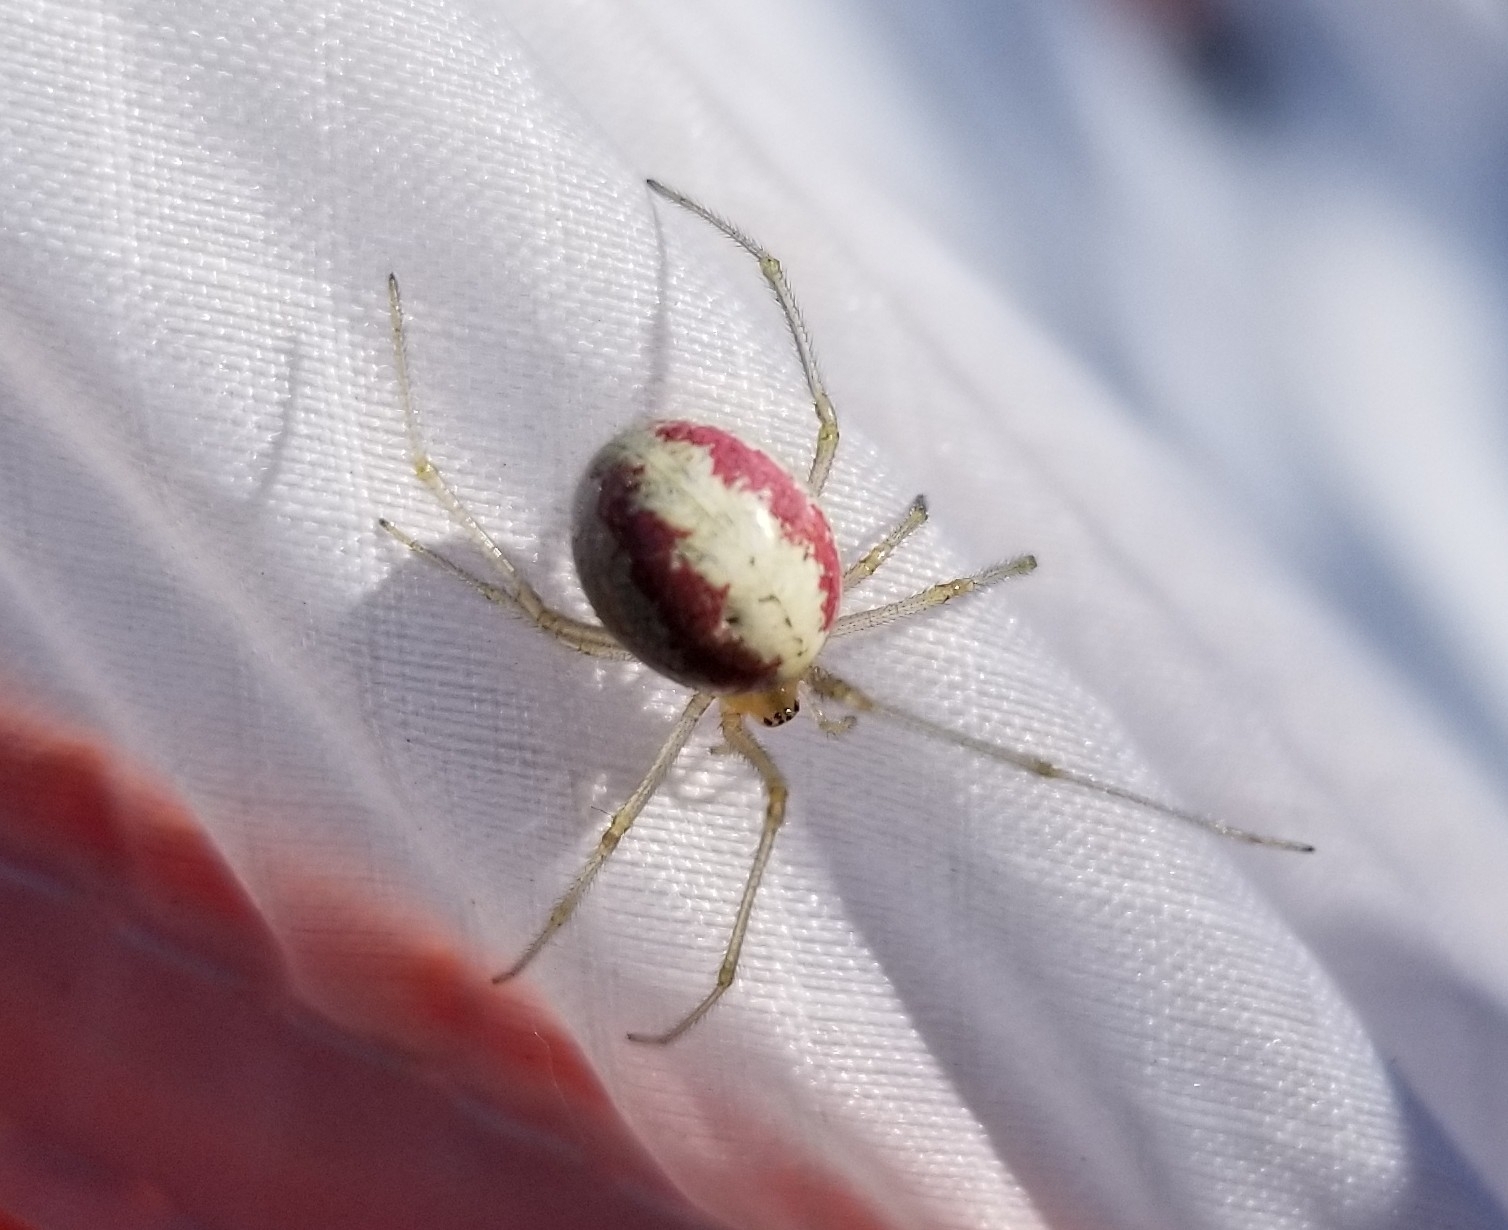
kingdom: Animalia
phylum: Arthropoda
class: Arachnida
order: Araneae
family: Theridiidae
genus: Enoplognatha
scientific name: Enoplognatha ovata
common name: Common candy-striped spider
